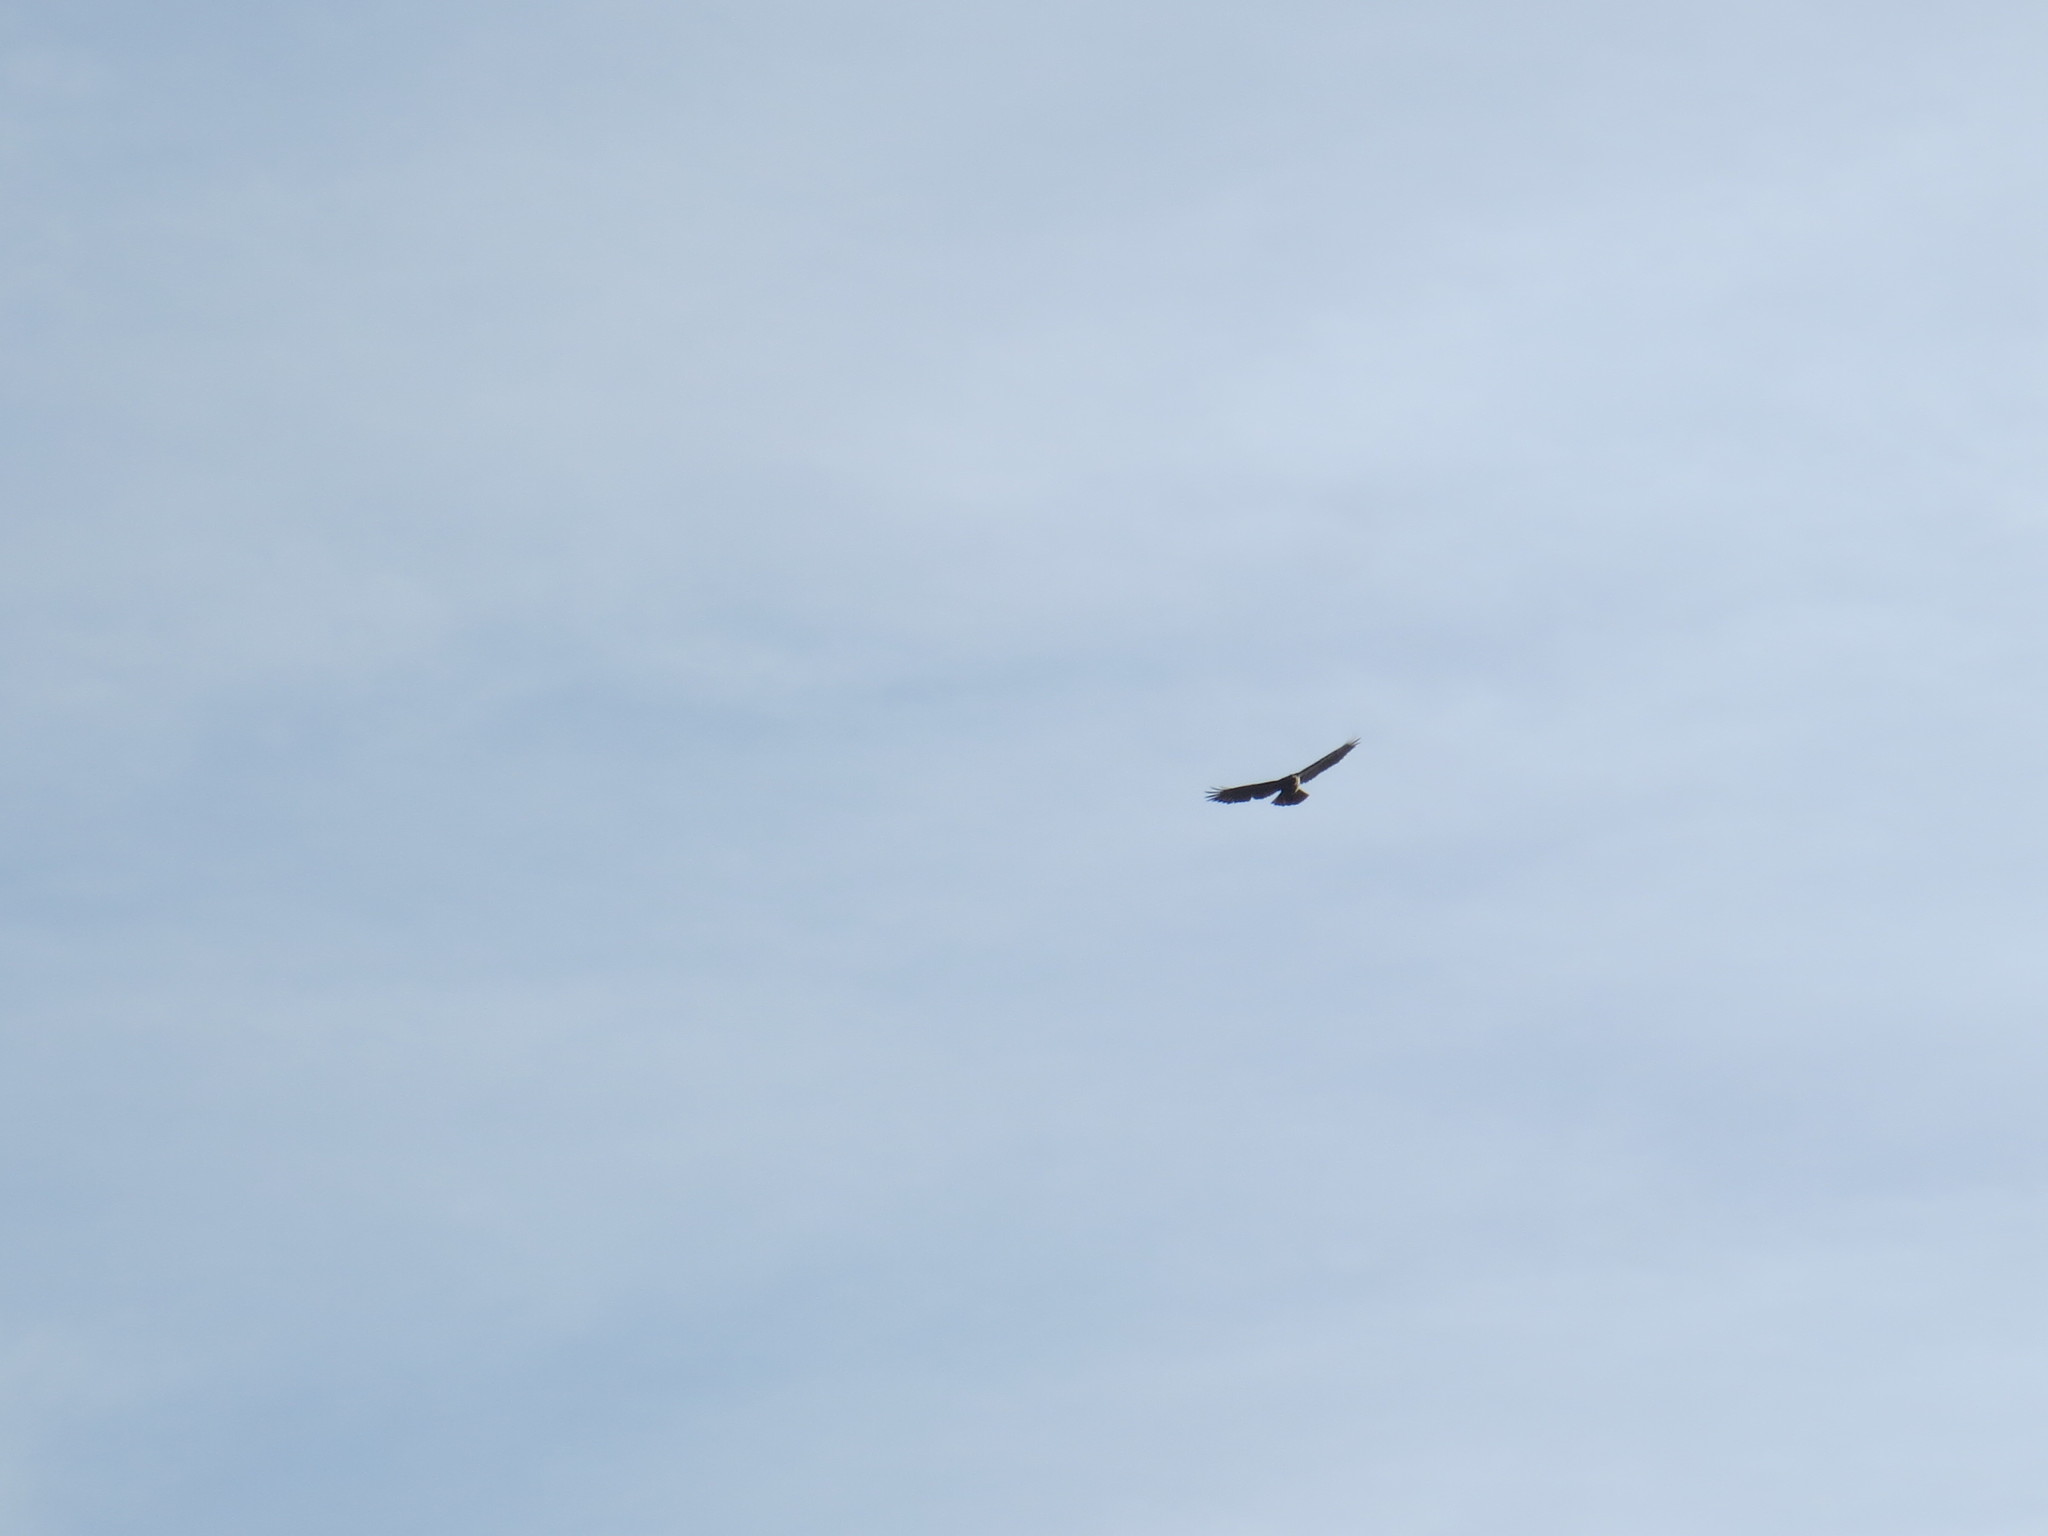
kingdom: Animalia
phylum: Chordata
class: Aves
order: Accipitriformes
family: Accipitridae
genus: Buteo
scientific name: Buteo jamaicensis
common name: Red-tailed hawk
